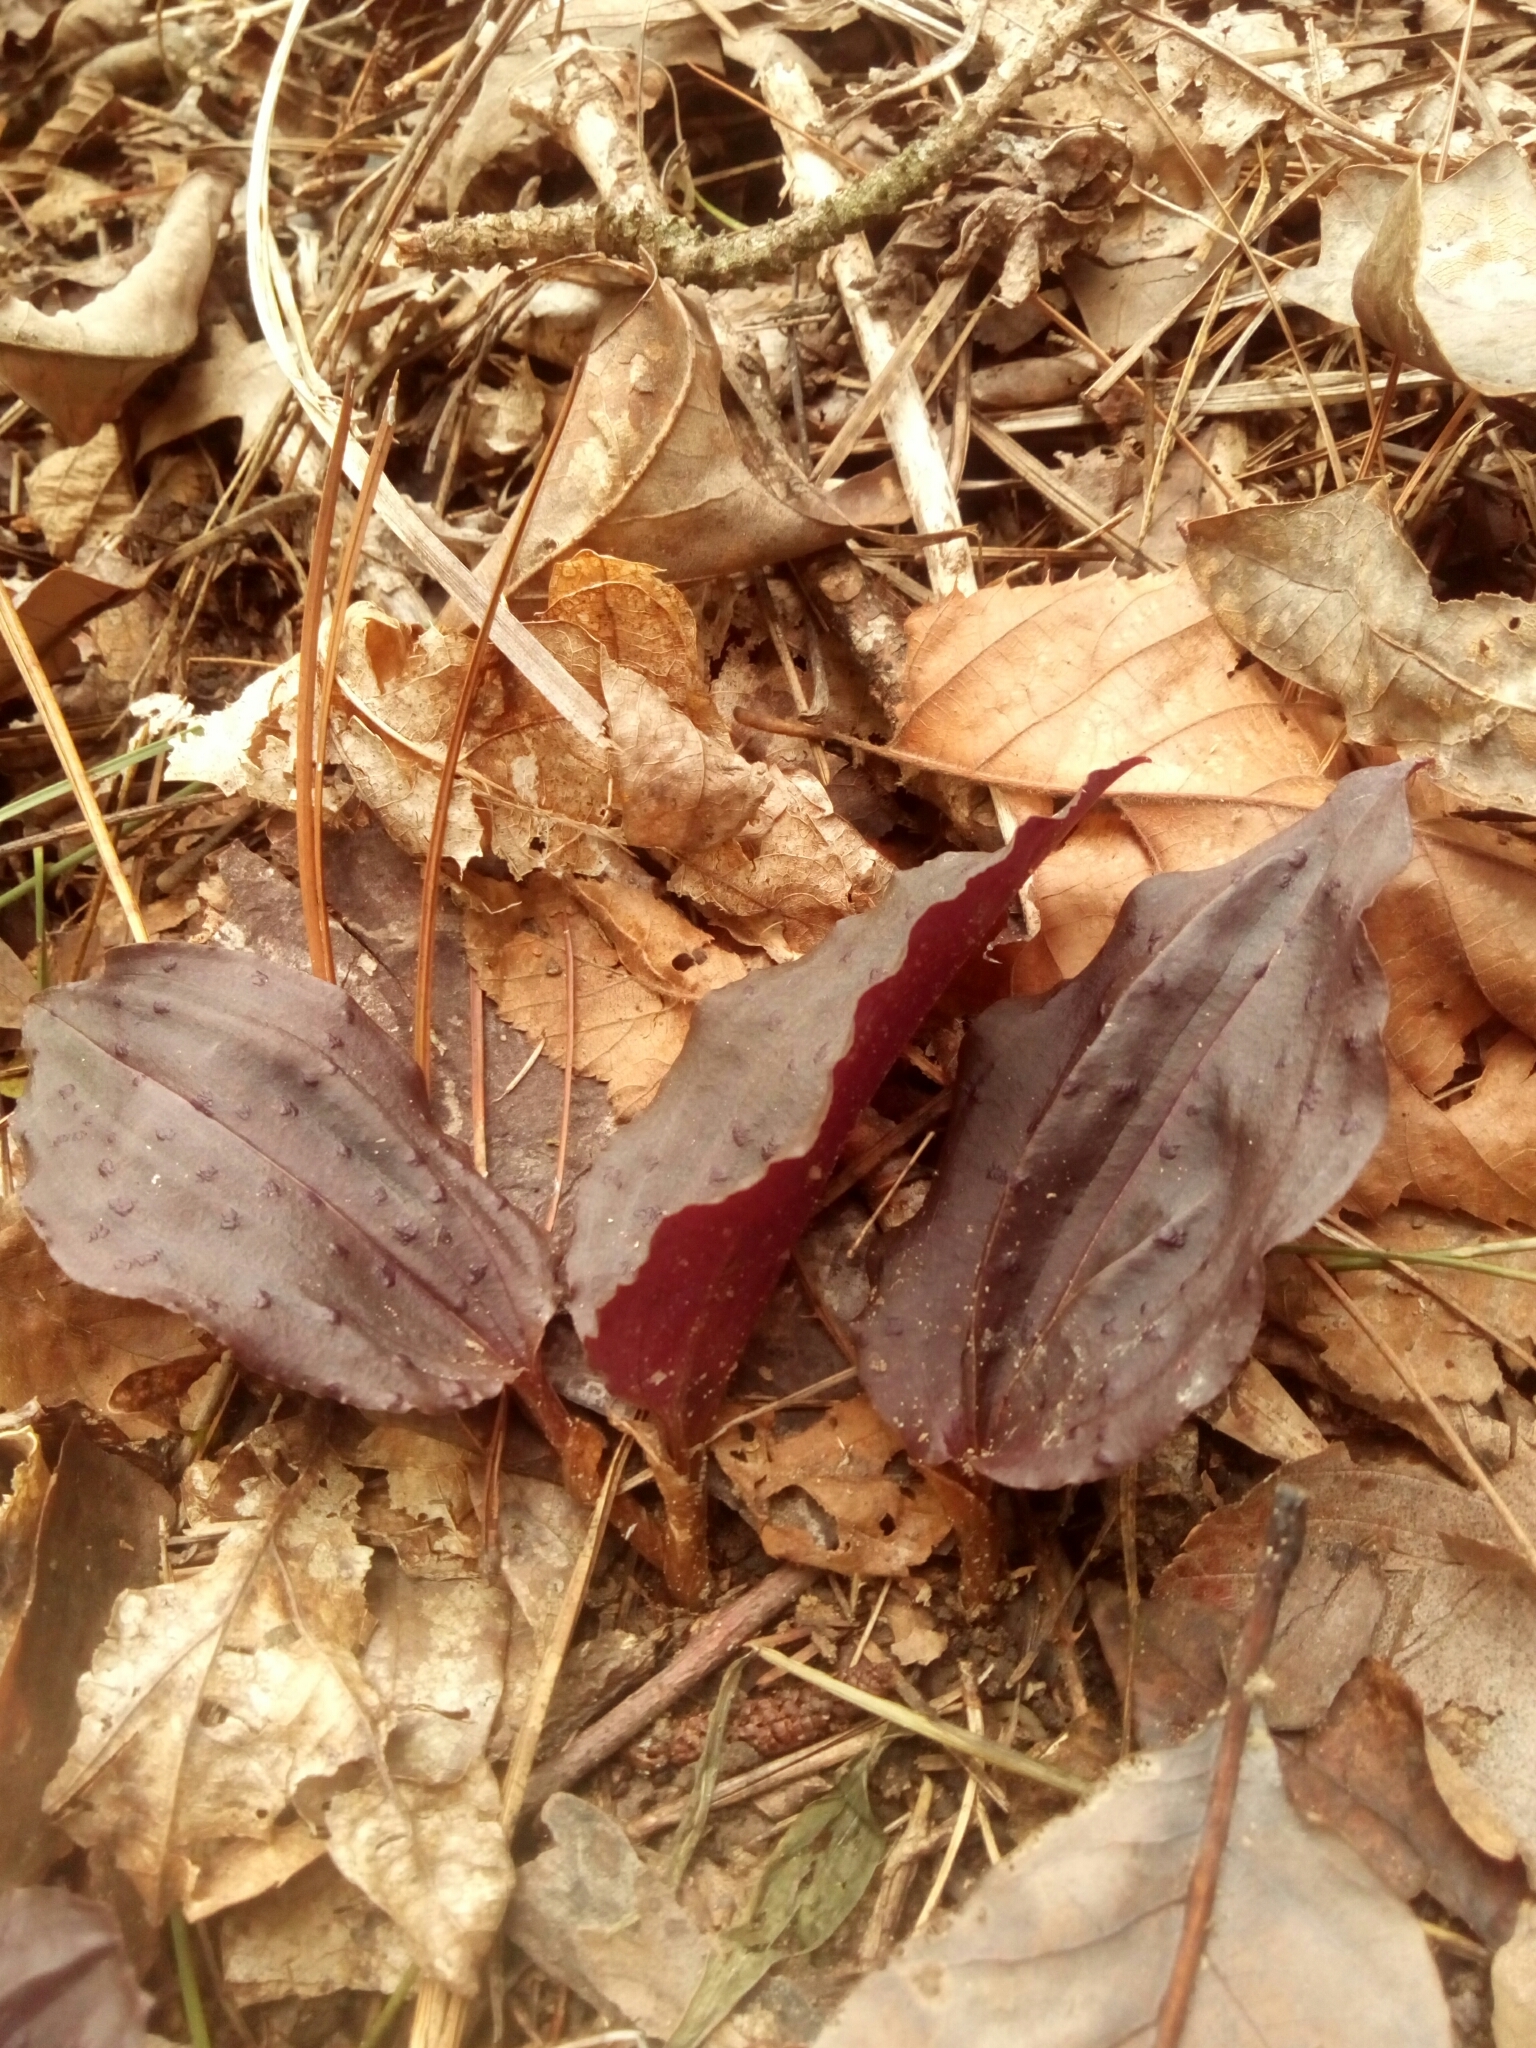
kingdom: Plantae
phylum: Tracheophyta
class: Liliopsida
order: Asparagales
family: Orchidaceae
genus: Tipularia
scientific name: Tipularia discolor
